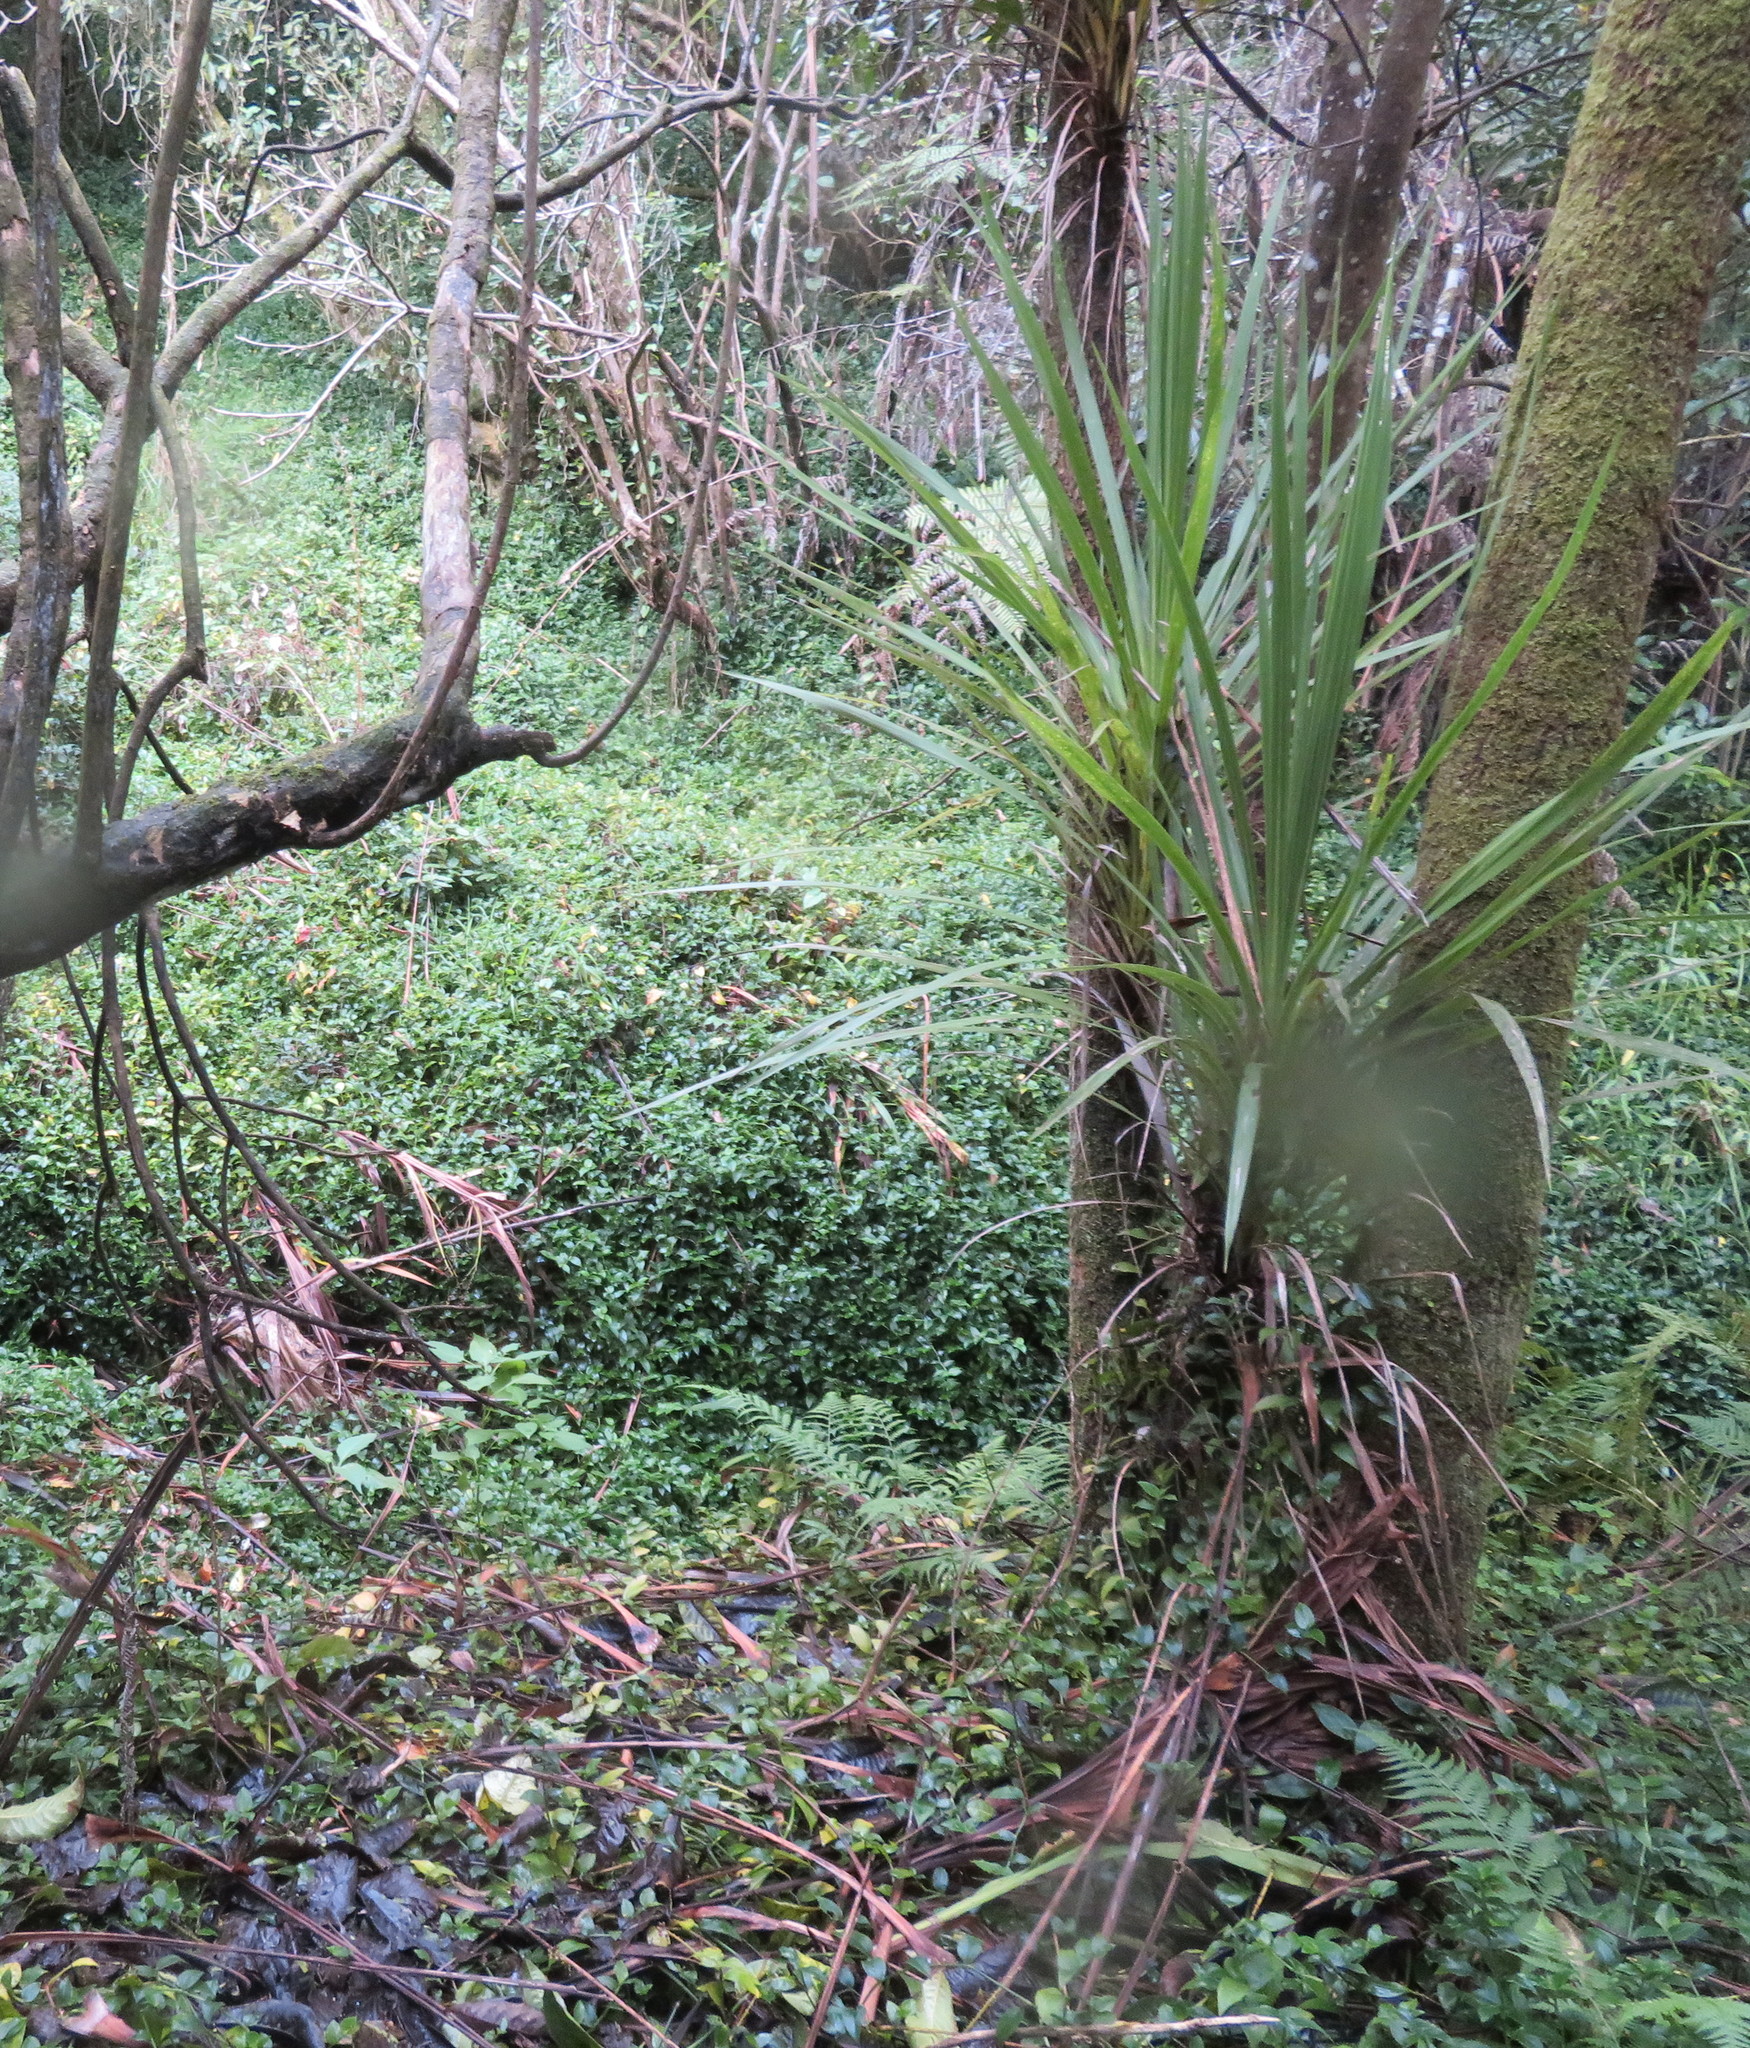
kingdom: Plantae
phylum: Tracheophyta
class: Liliopsida
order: Asparagales
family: Asparagaceae
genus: Cordyline
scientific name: Cordyline australis
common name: Cabbage-palm
